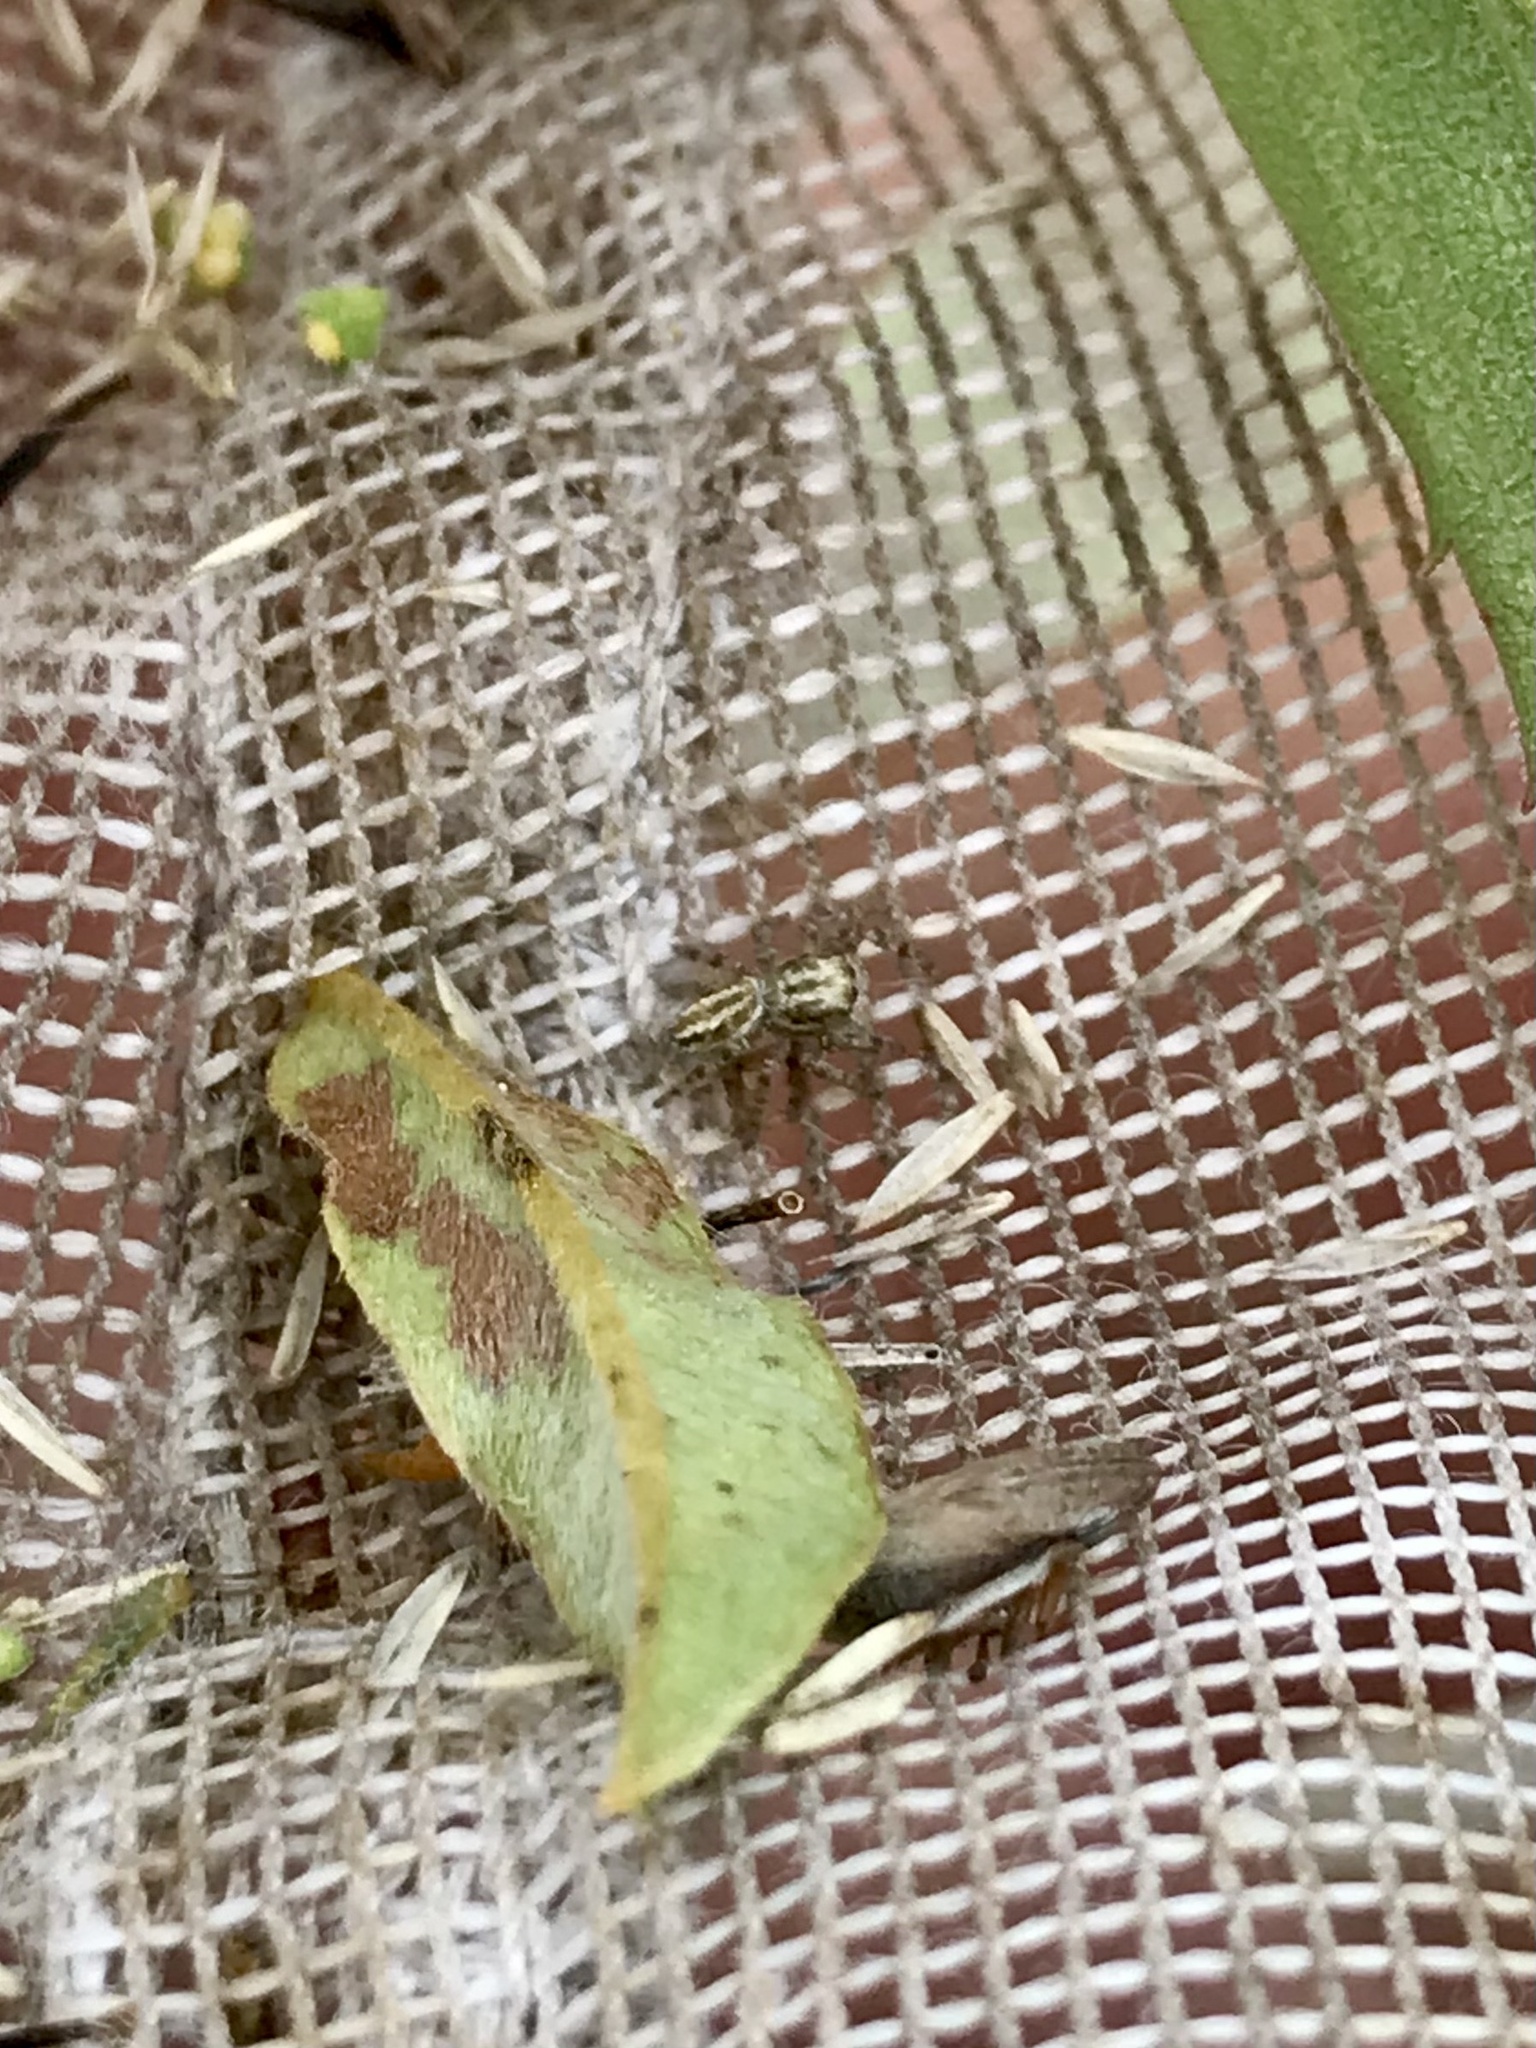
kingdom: Animalia
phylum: Arthropoda
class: Arachnida
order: Araneae
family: Salticidae
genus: Pelegrina
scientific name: Pelegrina arizonensis
